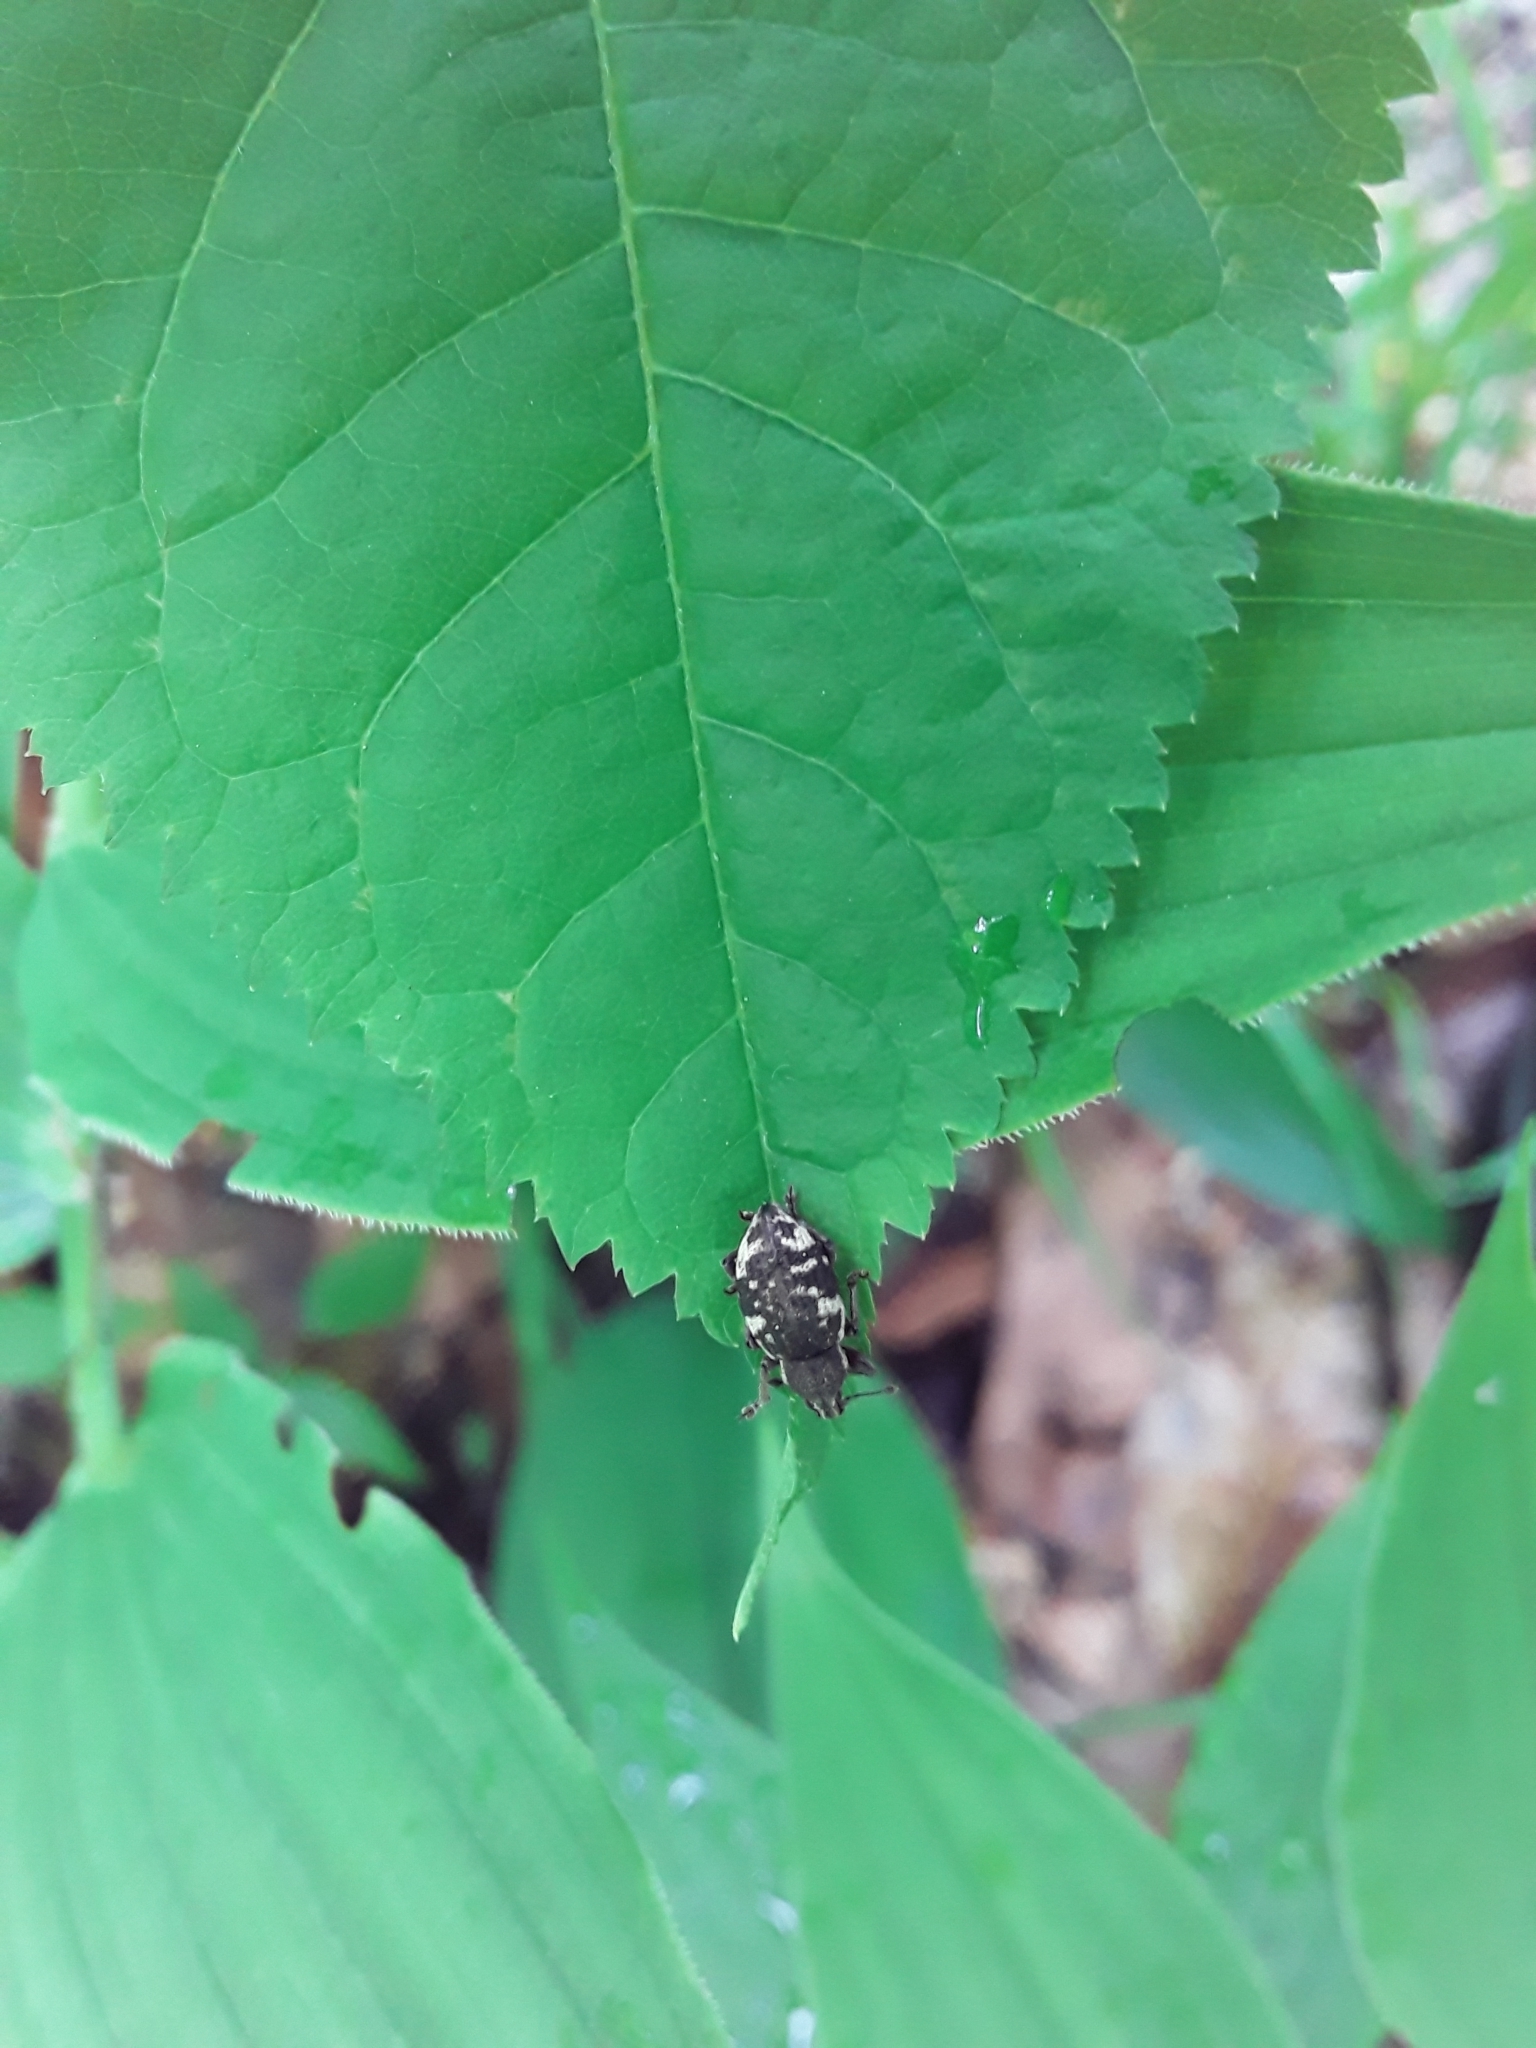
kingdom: Animalia
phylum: Arthropoda
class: Insecta
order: Coleoptera
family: Curculionidae
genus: Hormorus
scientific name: Hormorus undulatus
